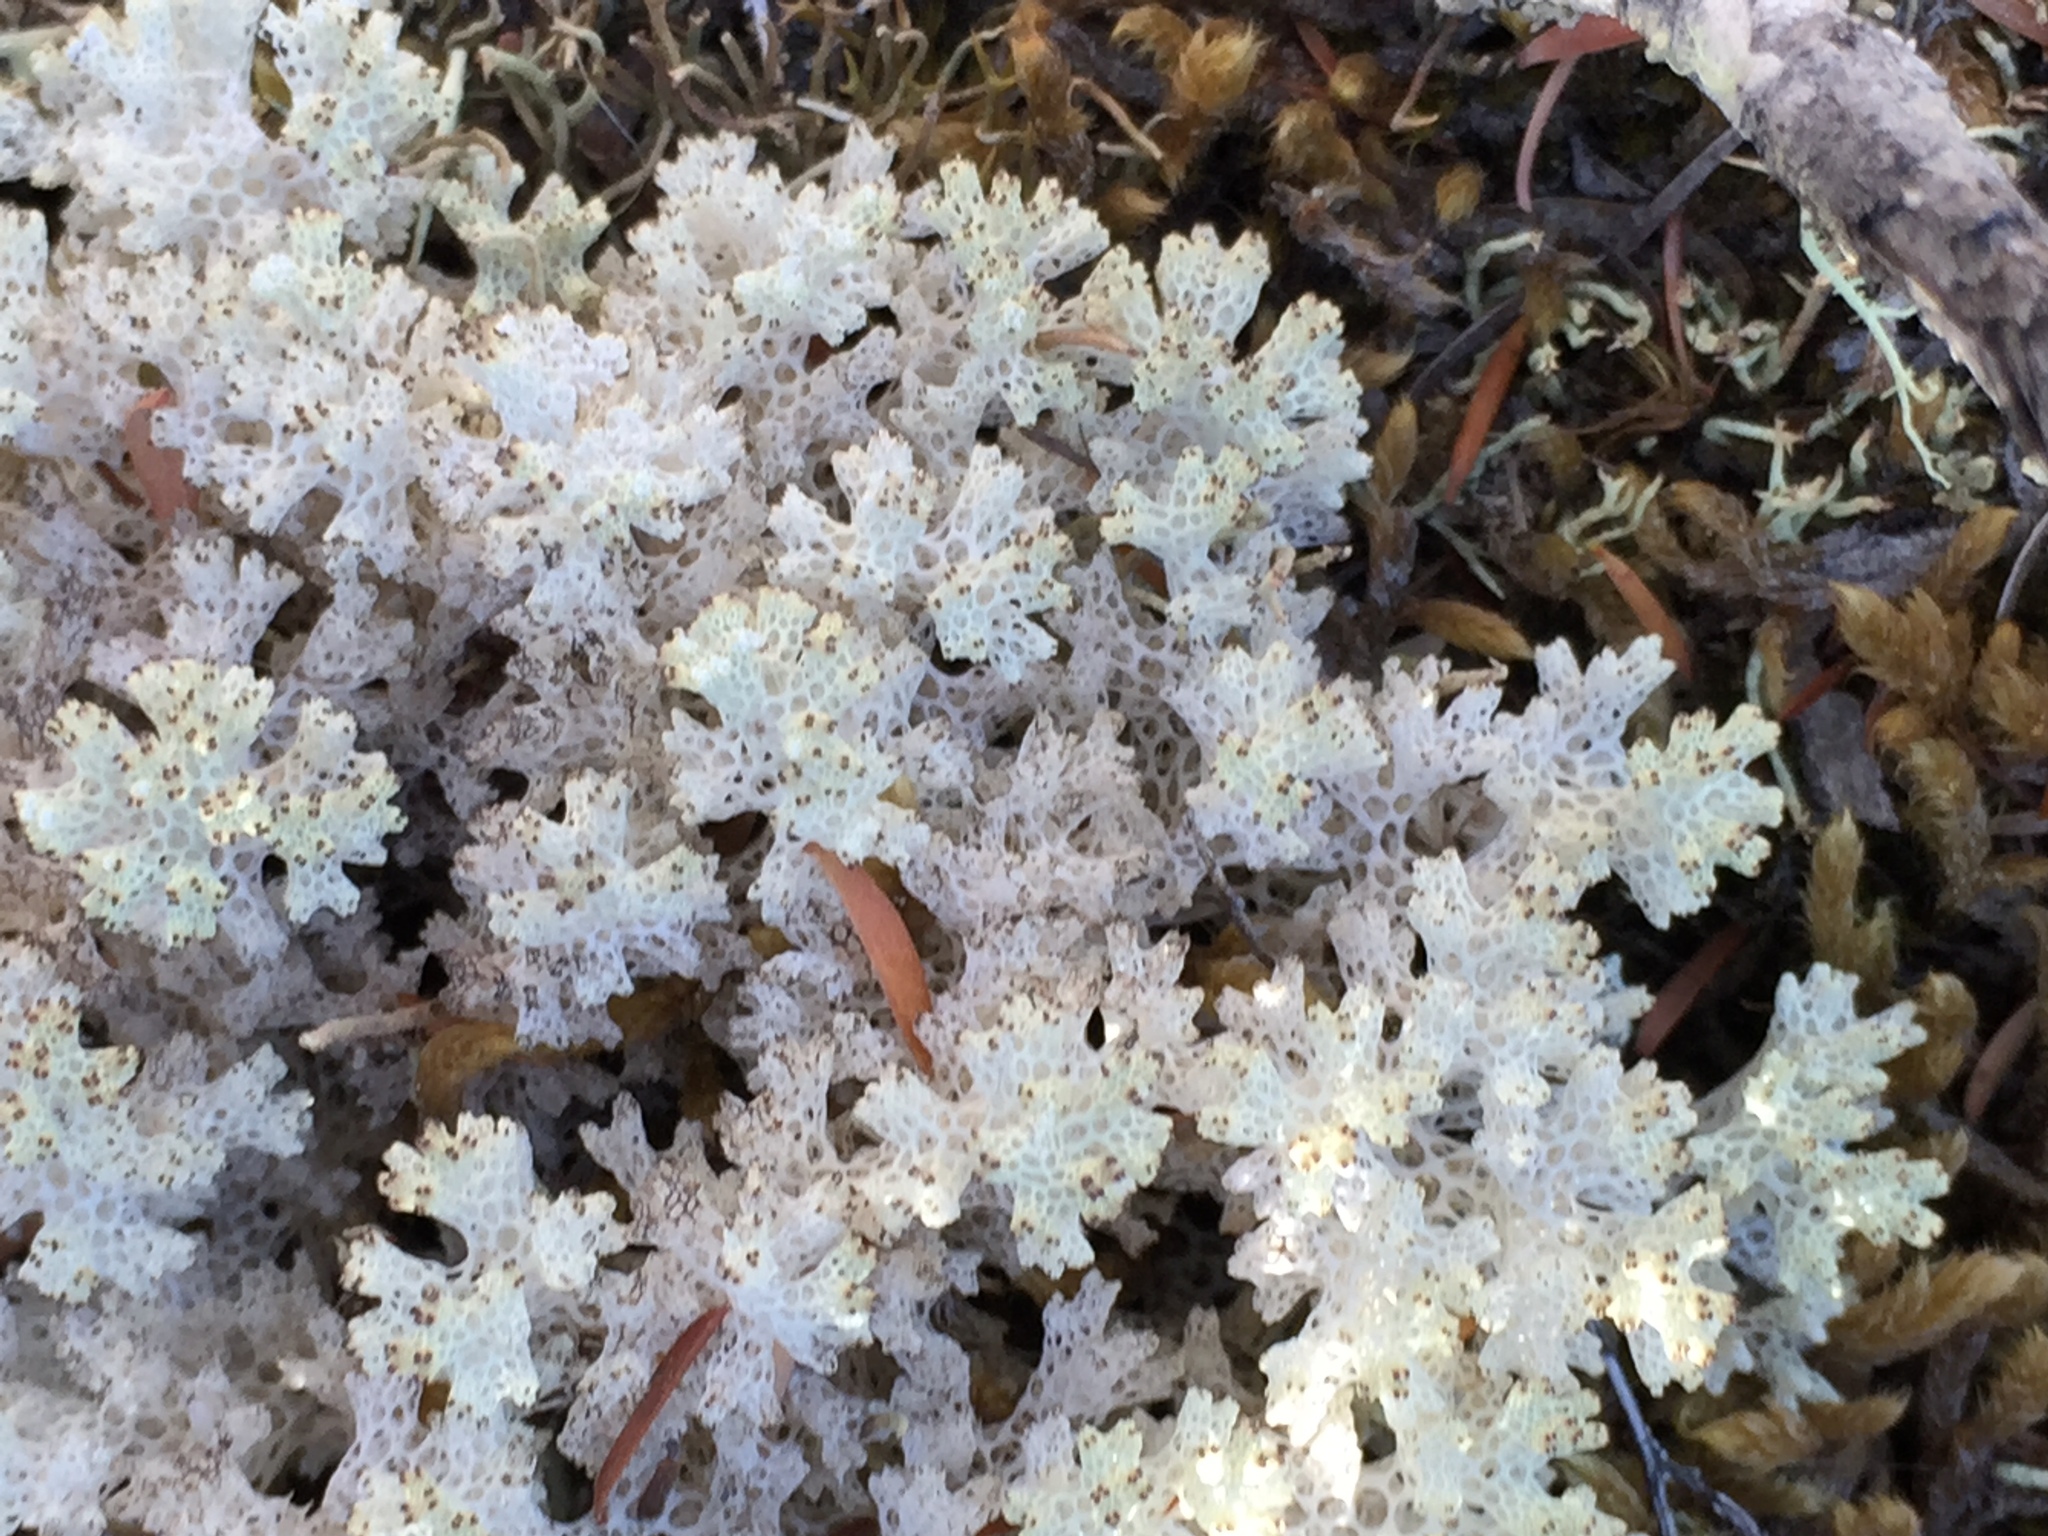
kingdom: Fungi
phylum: Ascomycota
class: Lecanoromycetes
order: Lecanorales
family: Cladoniaceae
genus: Pulchrocladia
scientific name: Pulchrocladia retipora
